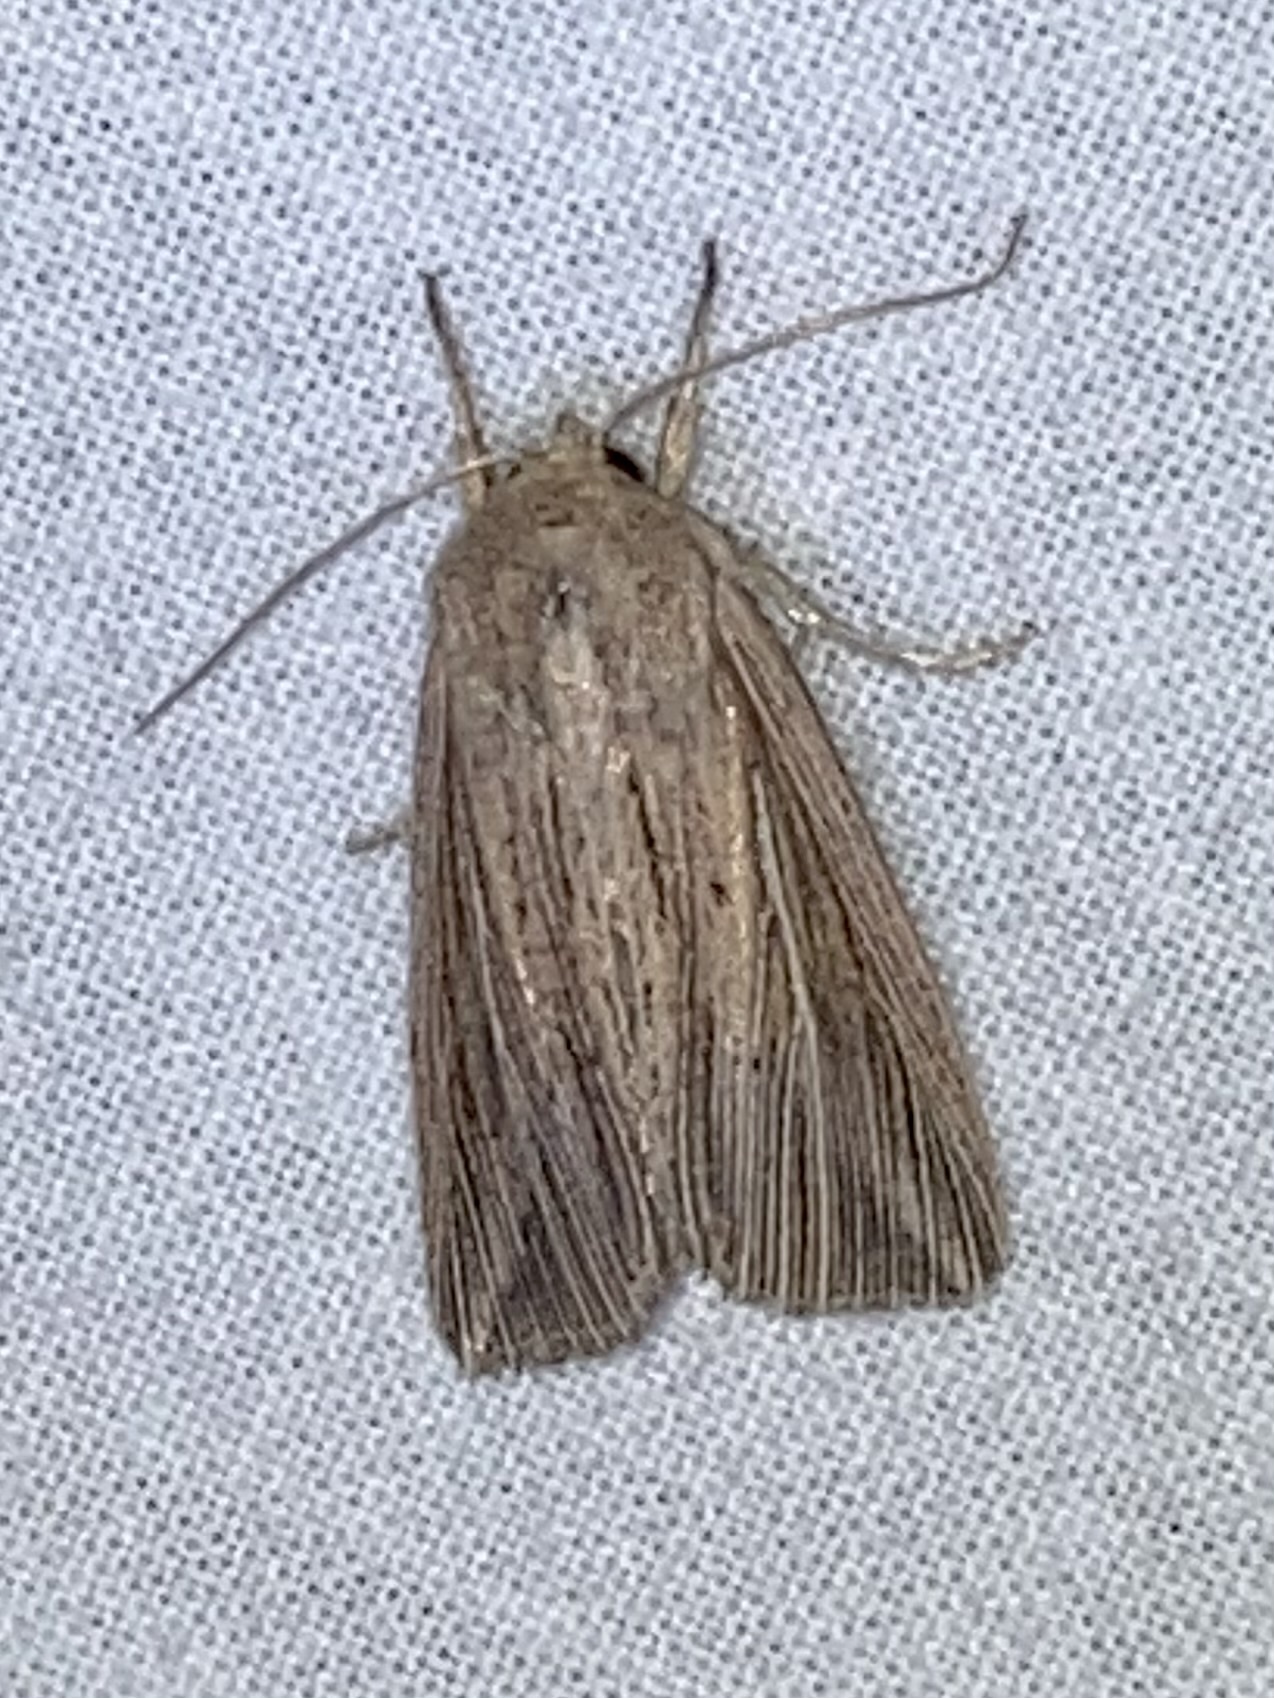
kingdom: Animalia
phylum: Arthropoda
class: Insecta
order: Lepidoptera
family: Noctuidae
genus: Mythimna
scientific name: Mythimna riparia
